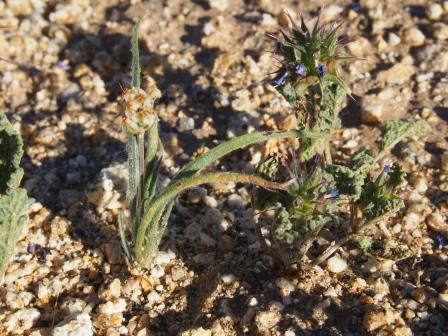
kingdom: Plantae
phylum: Tracheophyta
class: Magnoliopsida
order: Lamiales
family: Plantaginaceae
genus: Plantago
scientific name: Plantago ovata
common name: Blond plantain
